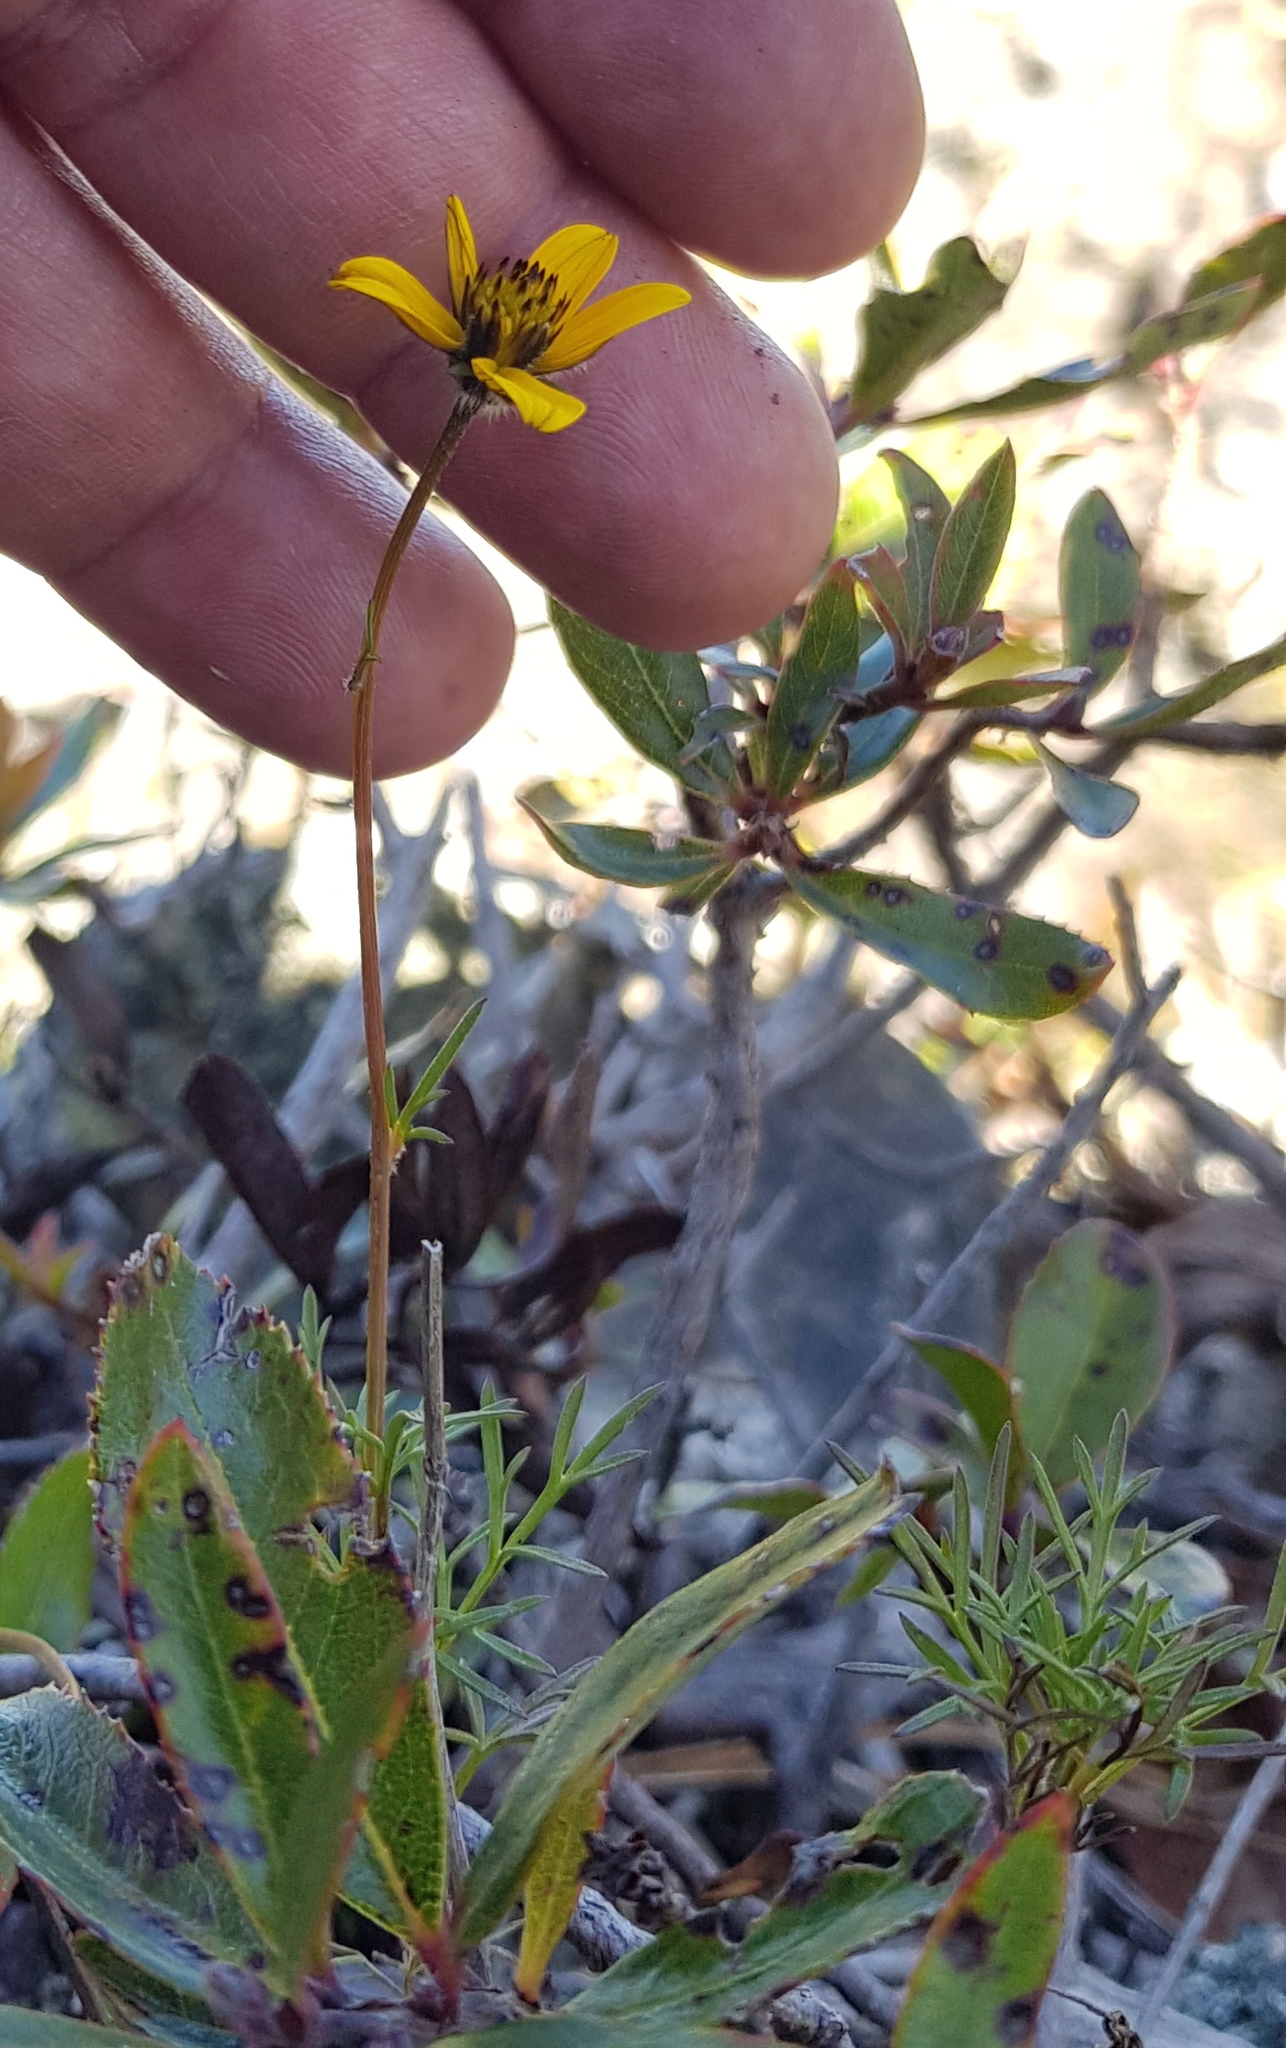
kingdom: Plantae
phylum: Tracheophyta
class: Magnoliopsida
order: Asterales
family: Asteraceae
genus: Bidens
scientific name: Bidens serrulata
